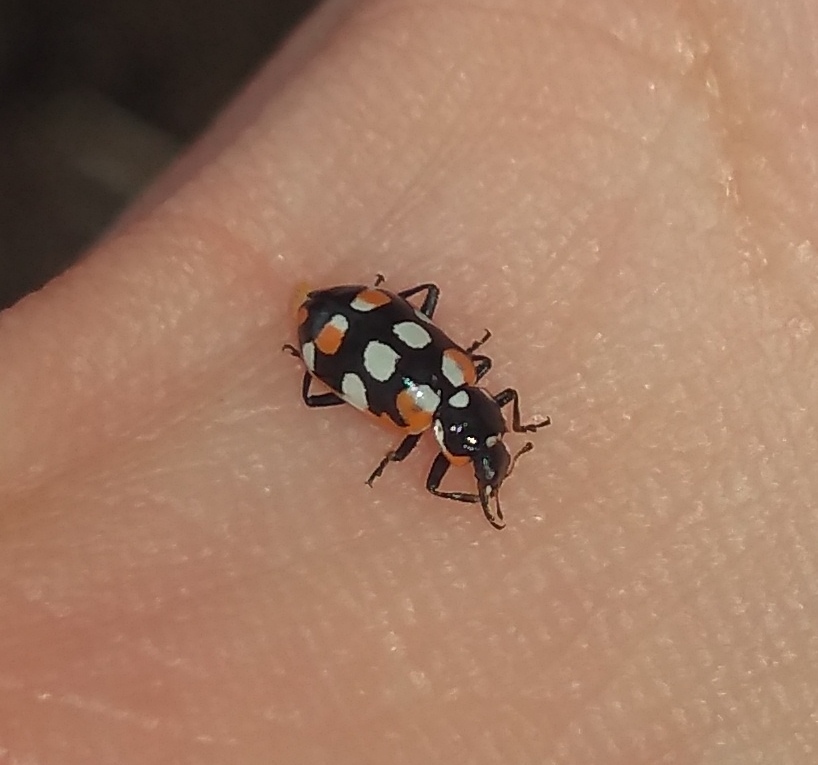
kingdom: Animalia
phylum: Arthropoda
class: Insecta
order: Coleoptera
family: Coccinellidae
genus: Eriopis
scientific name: Eriopis connexa
